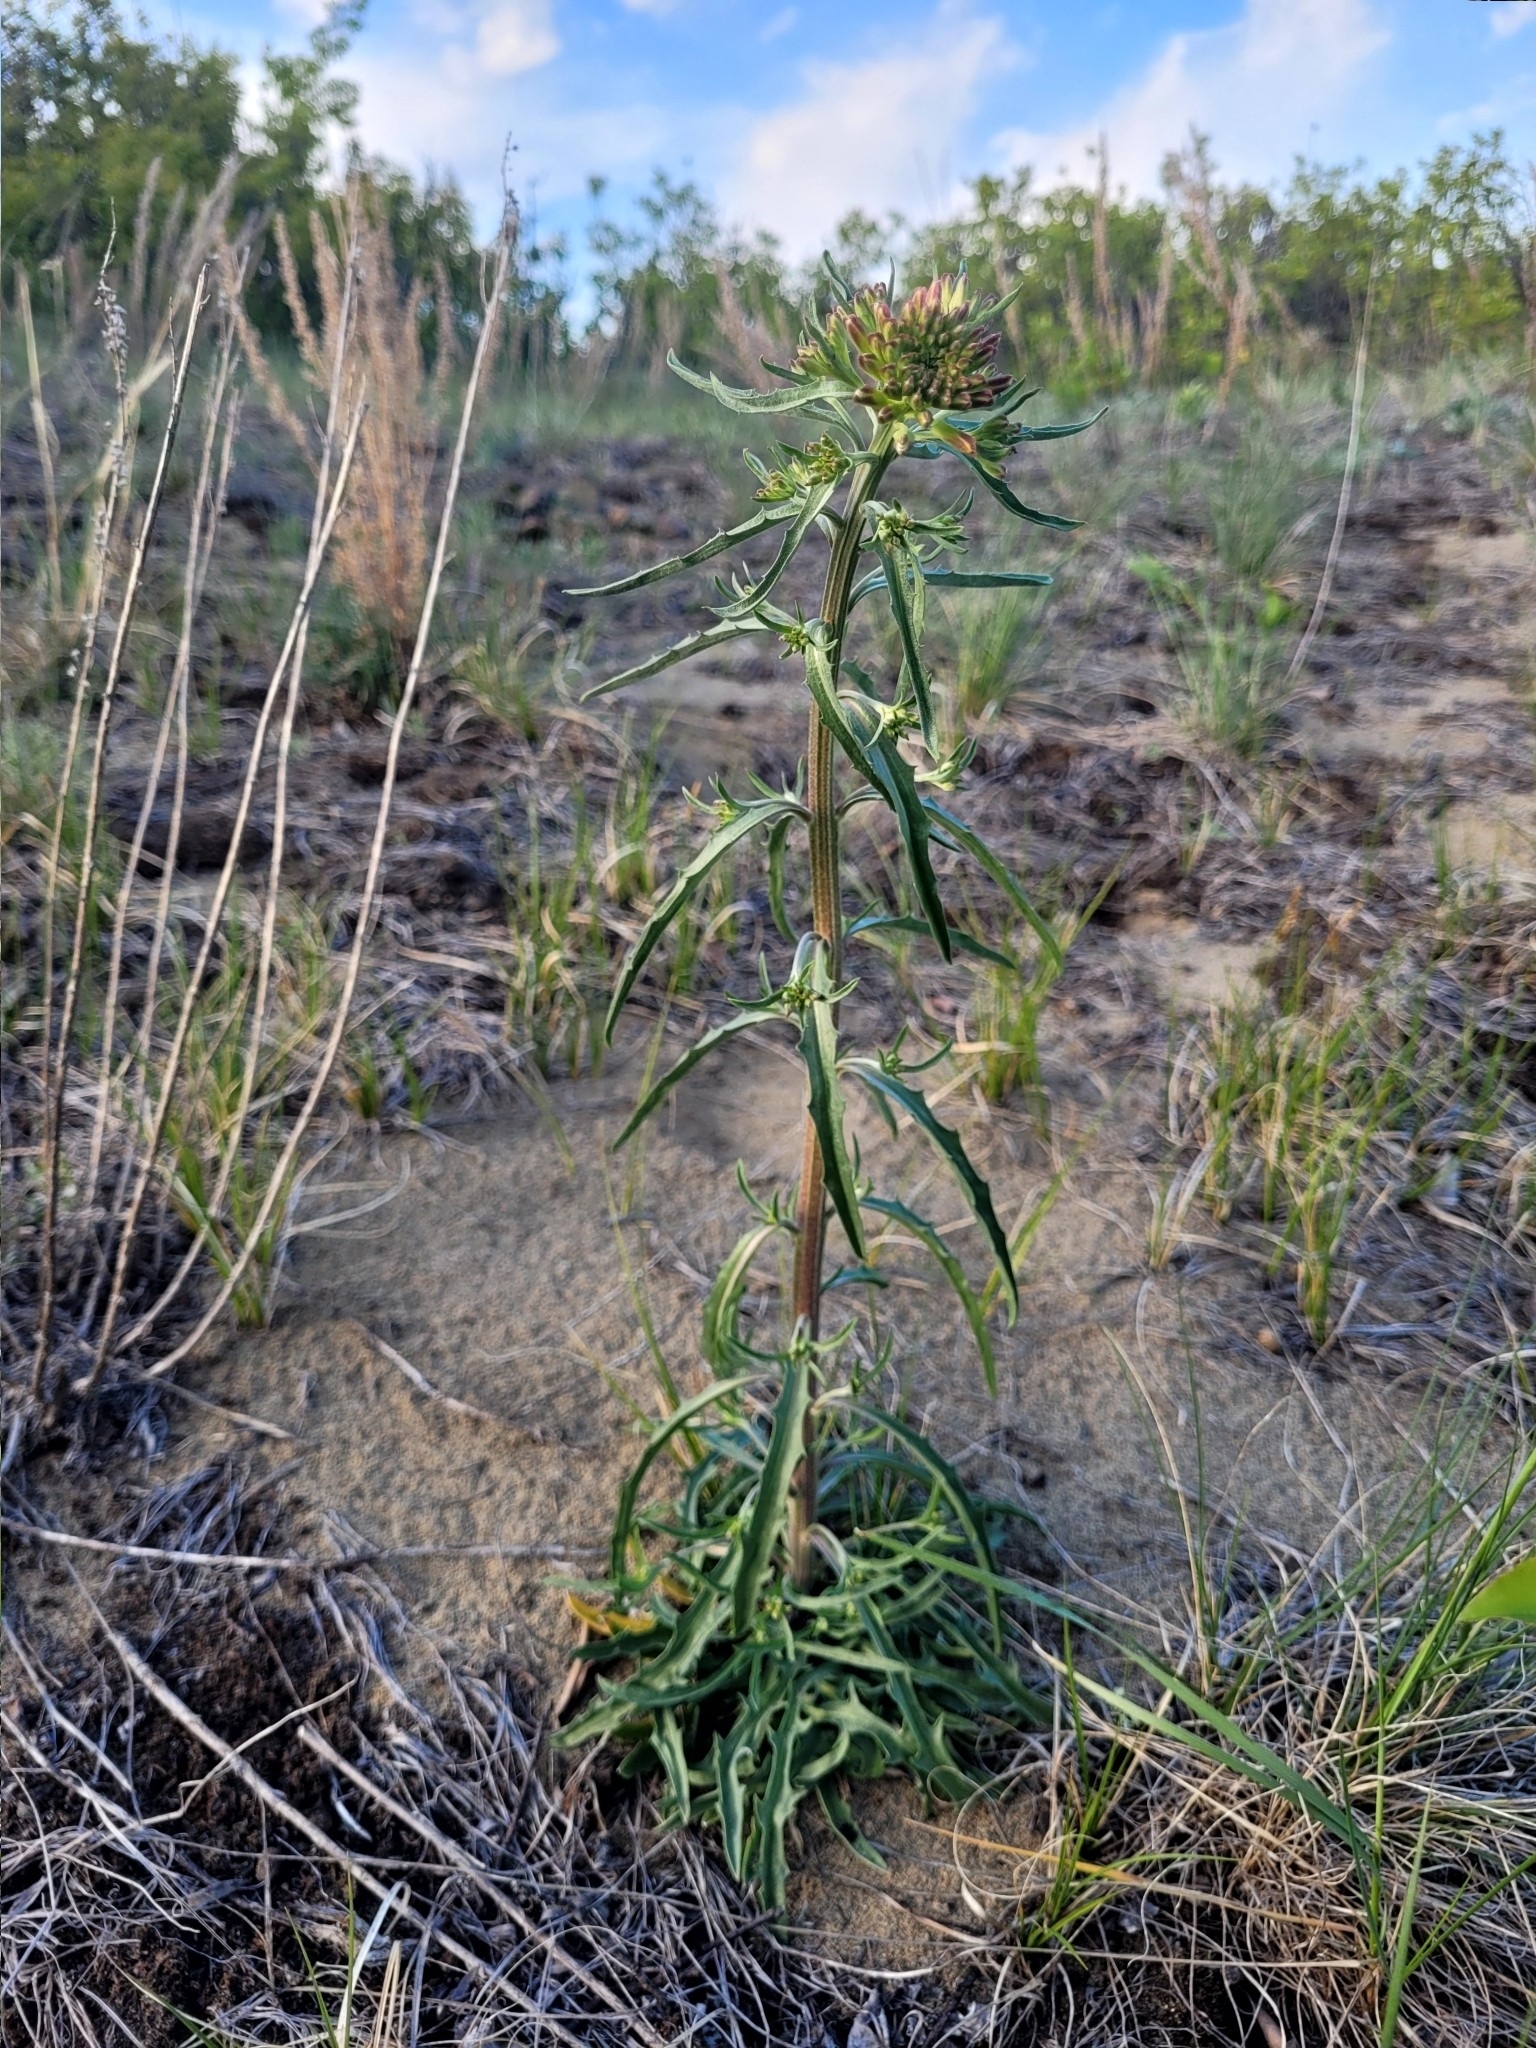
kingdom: Plantae
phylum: Tracheophyta
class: Magnoliopsida
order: Brassicales
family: Brassicaceae
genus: Erysimum
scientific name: Erysimum asperum
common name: Western wallflower
